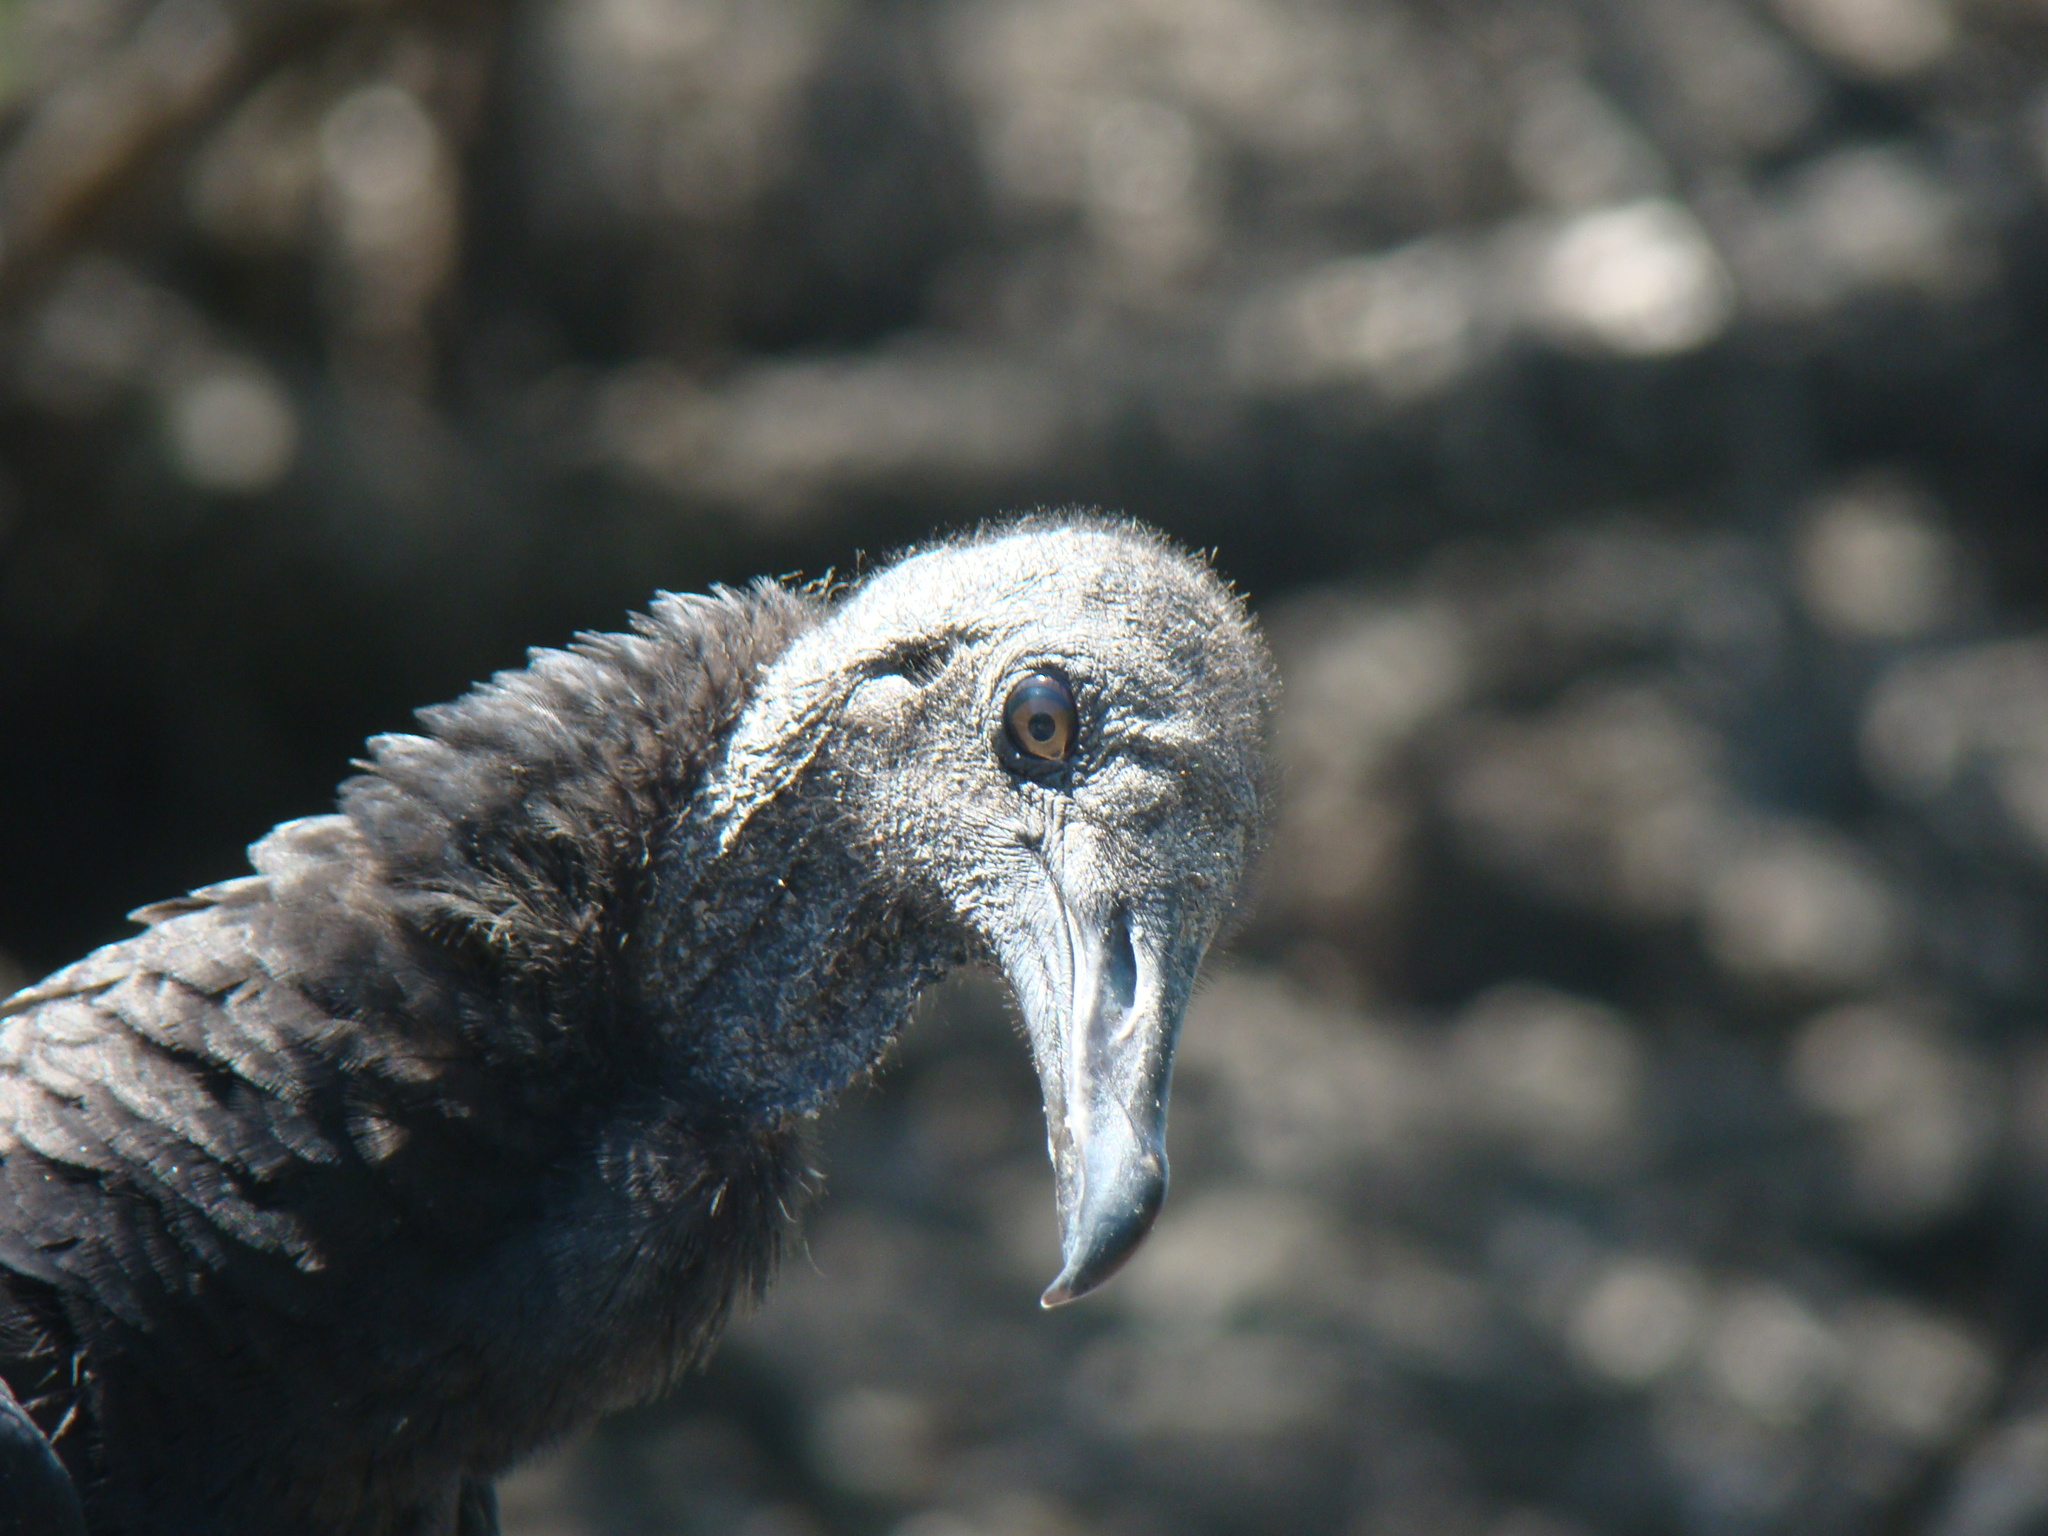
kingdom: Animalia
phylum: Chordata
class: Aves
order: Accipitriformes
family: Cathartidae
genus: Coragyps
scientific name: Coragyps atratus
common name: Black vulture
